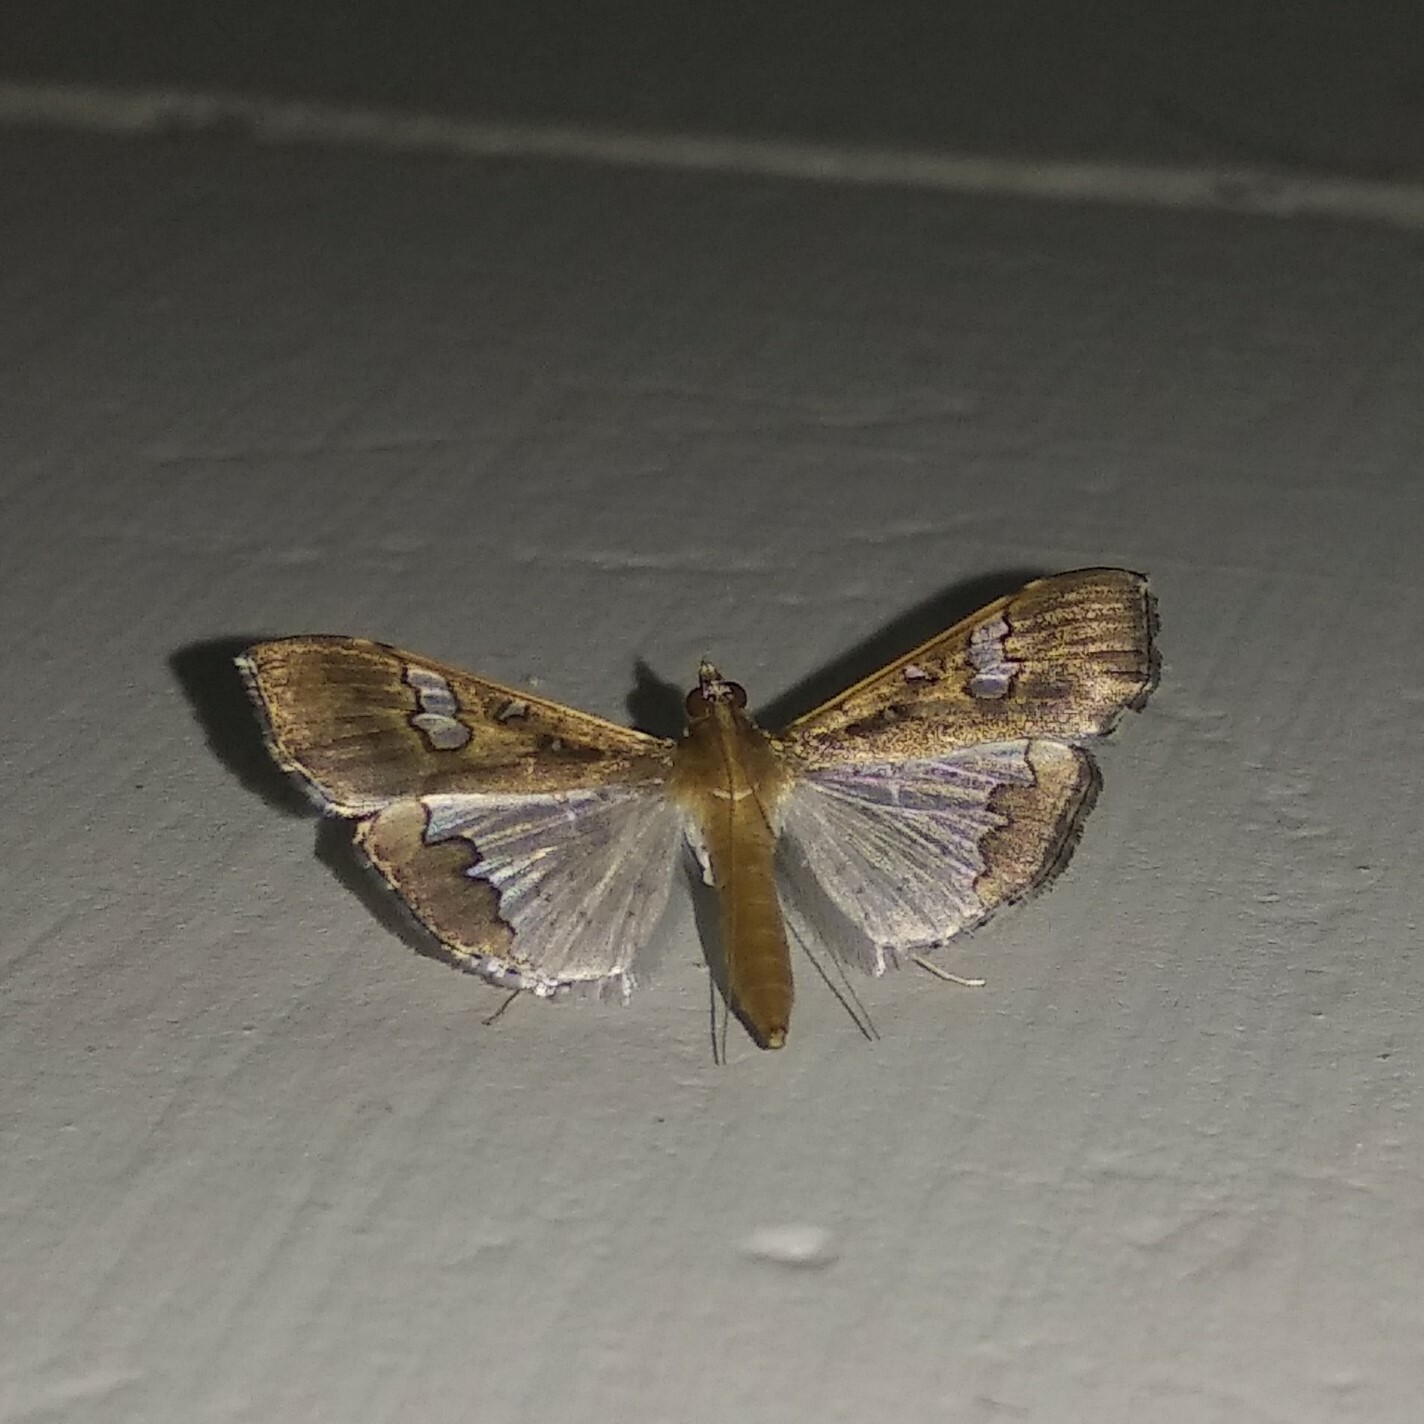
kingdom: Animalia
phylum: Arthropoda
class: Insecta
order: Lepidoptera
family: Crambidae
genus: Maruca
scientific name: Maruca vitrata
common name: Maruca pod borer
